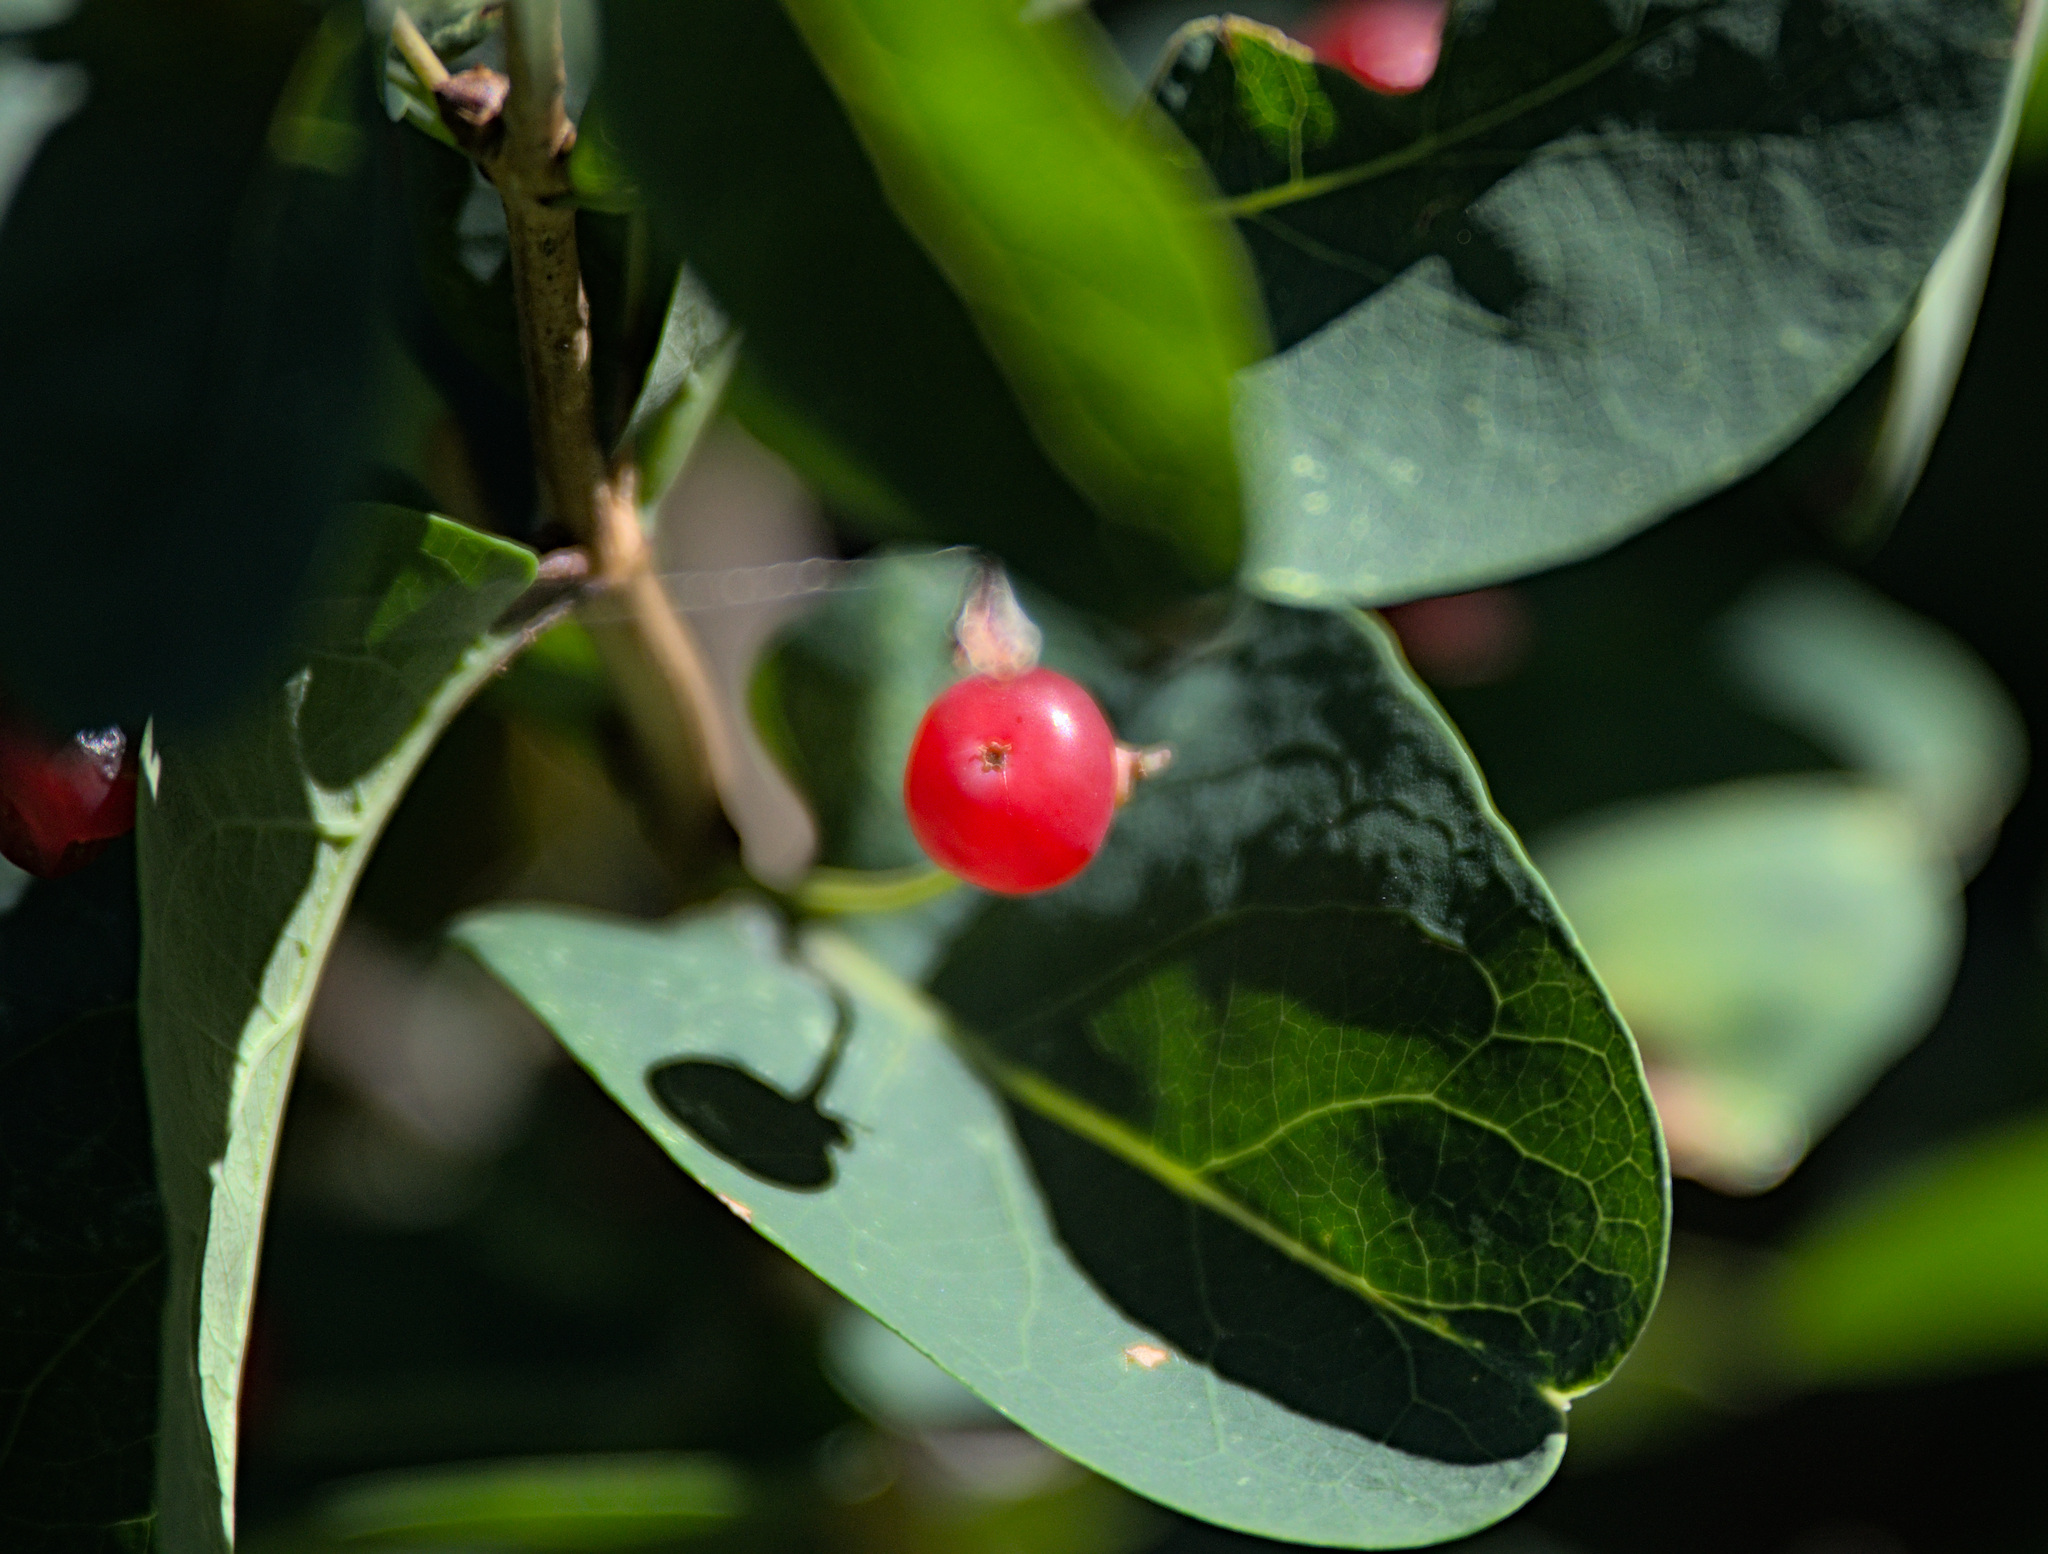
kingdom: Plantae
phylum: Tracheophyta
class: Magnoliopsida
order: Dipsacales
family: Caprifoliaceae
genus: Lonicera
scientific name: Lonicera tatarica
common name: Tatarian honeysuckle
